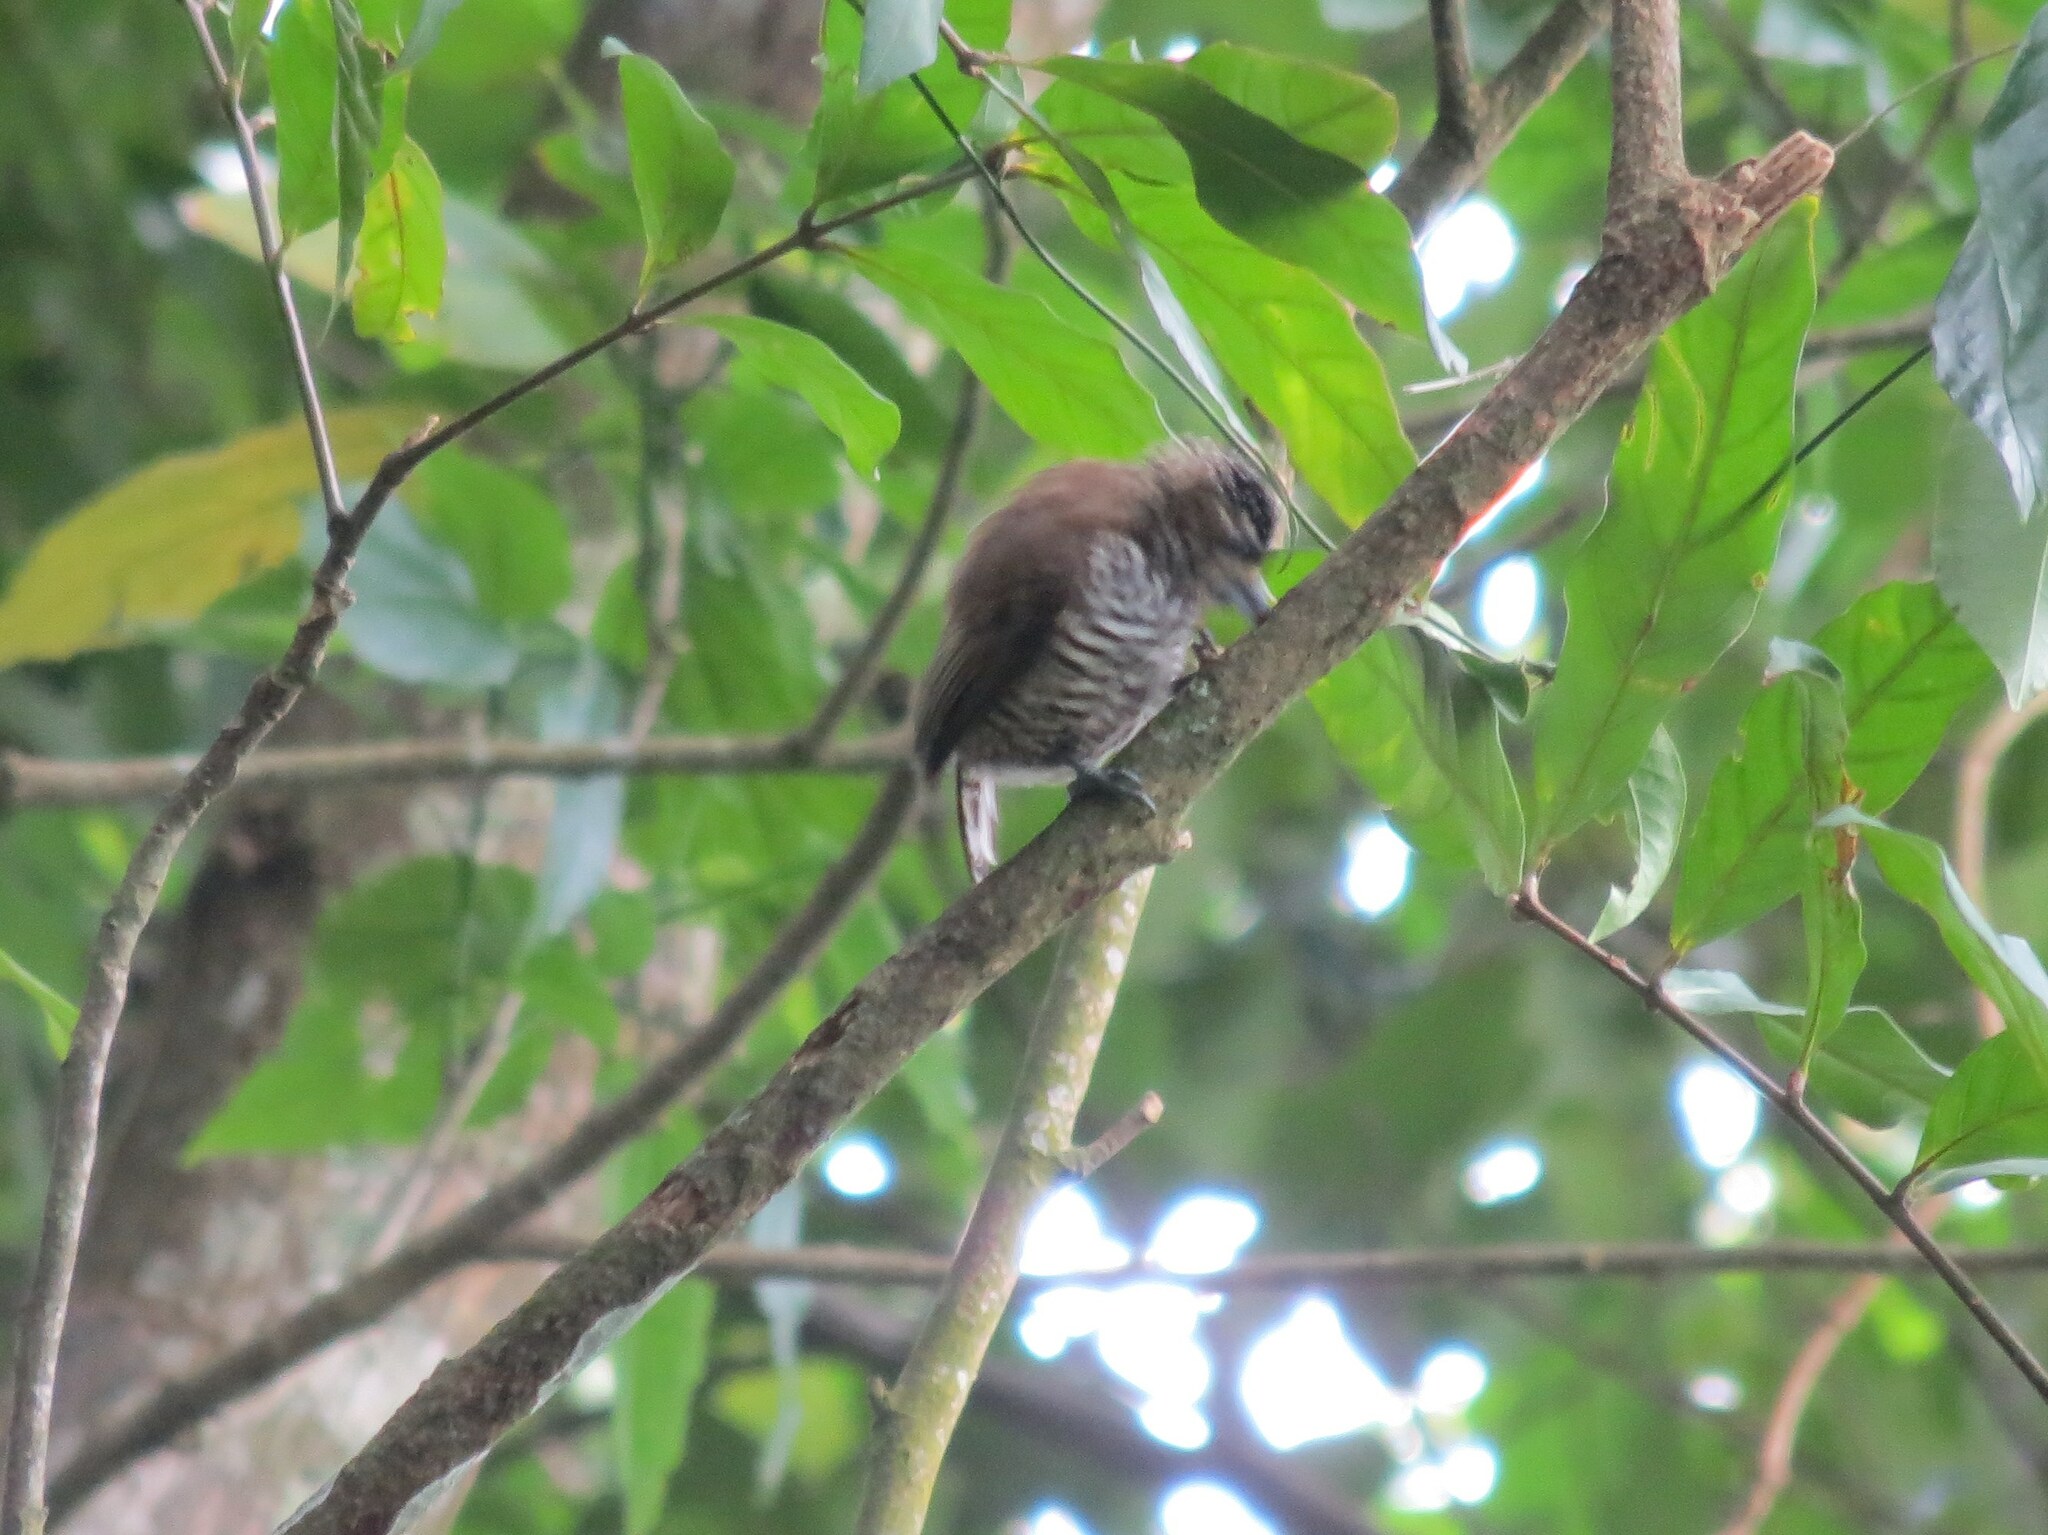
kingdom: Animalia
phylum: Chordata
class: Aves
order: Piciformes
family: Picidae
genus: Picumnus
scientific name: Picumnus cirratus
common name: White-barred piculet
